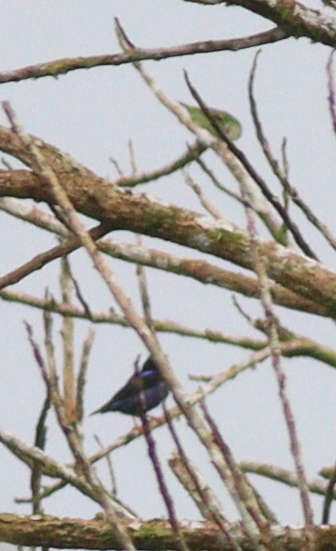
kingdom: Animalia
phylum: Chordata
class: Aves
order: Passeriformes
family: Thraupidae
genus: Cyanerpes
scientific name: Cyanerpes cyaneus
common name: Red-legged honeycreeper
